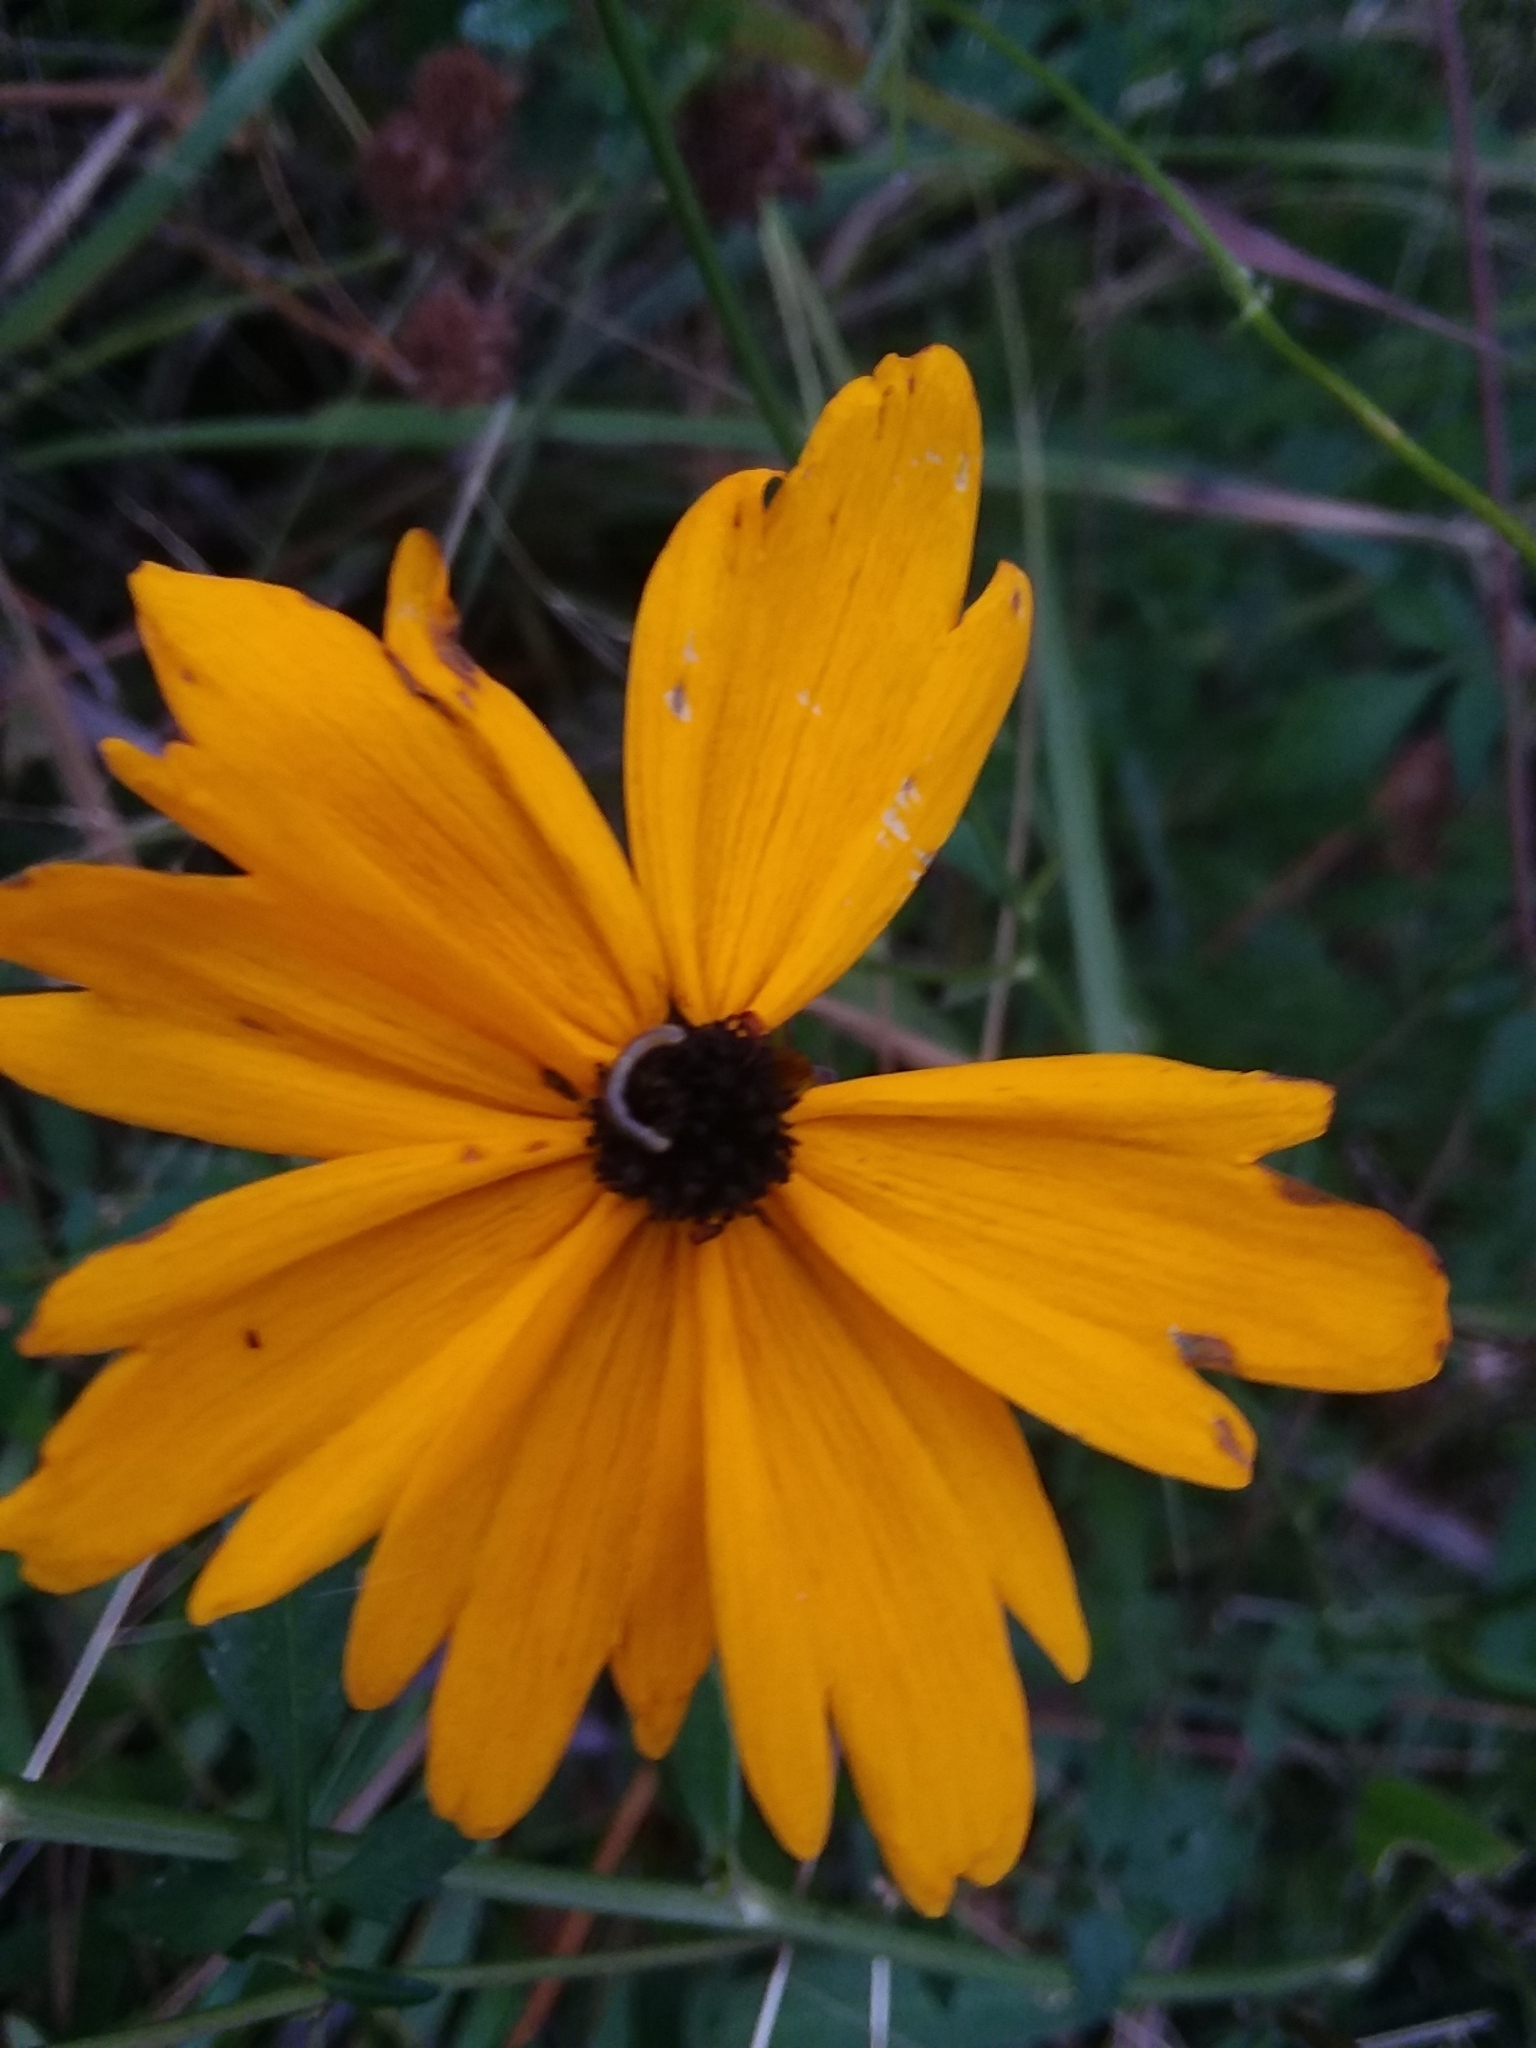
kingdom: Plantae
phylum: Tracheophyta
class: Magnoliopsida
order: Asterales
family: Asteraceae
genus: Coreopsis
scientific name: Coreopsis gladiata
